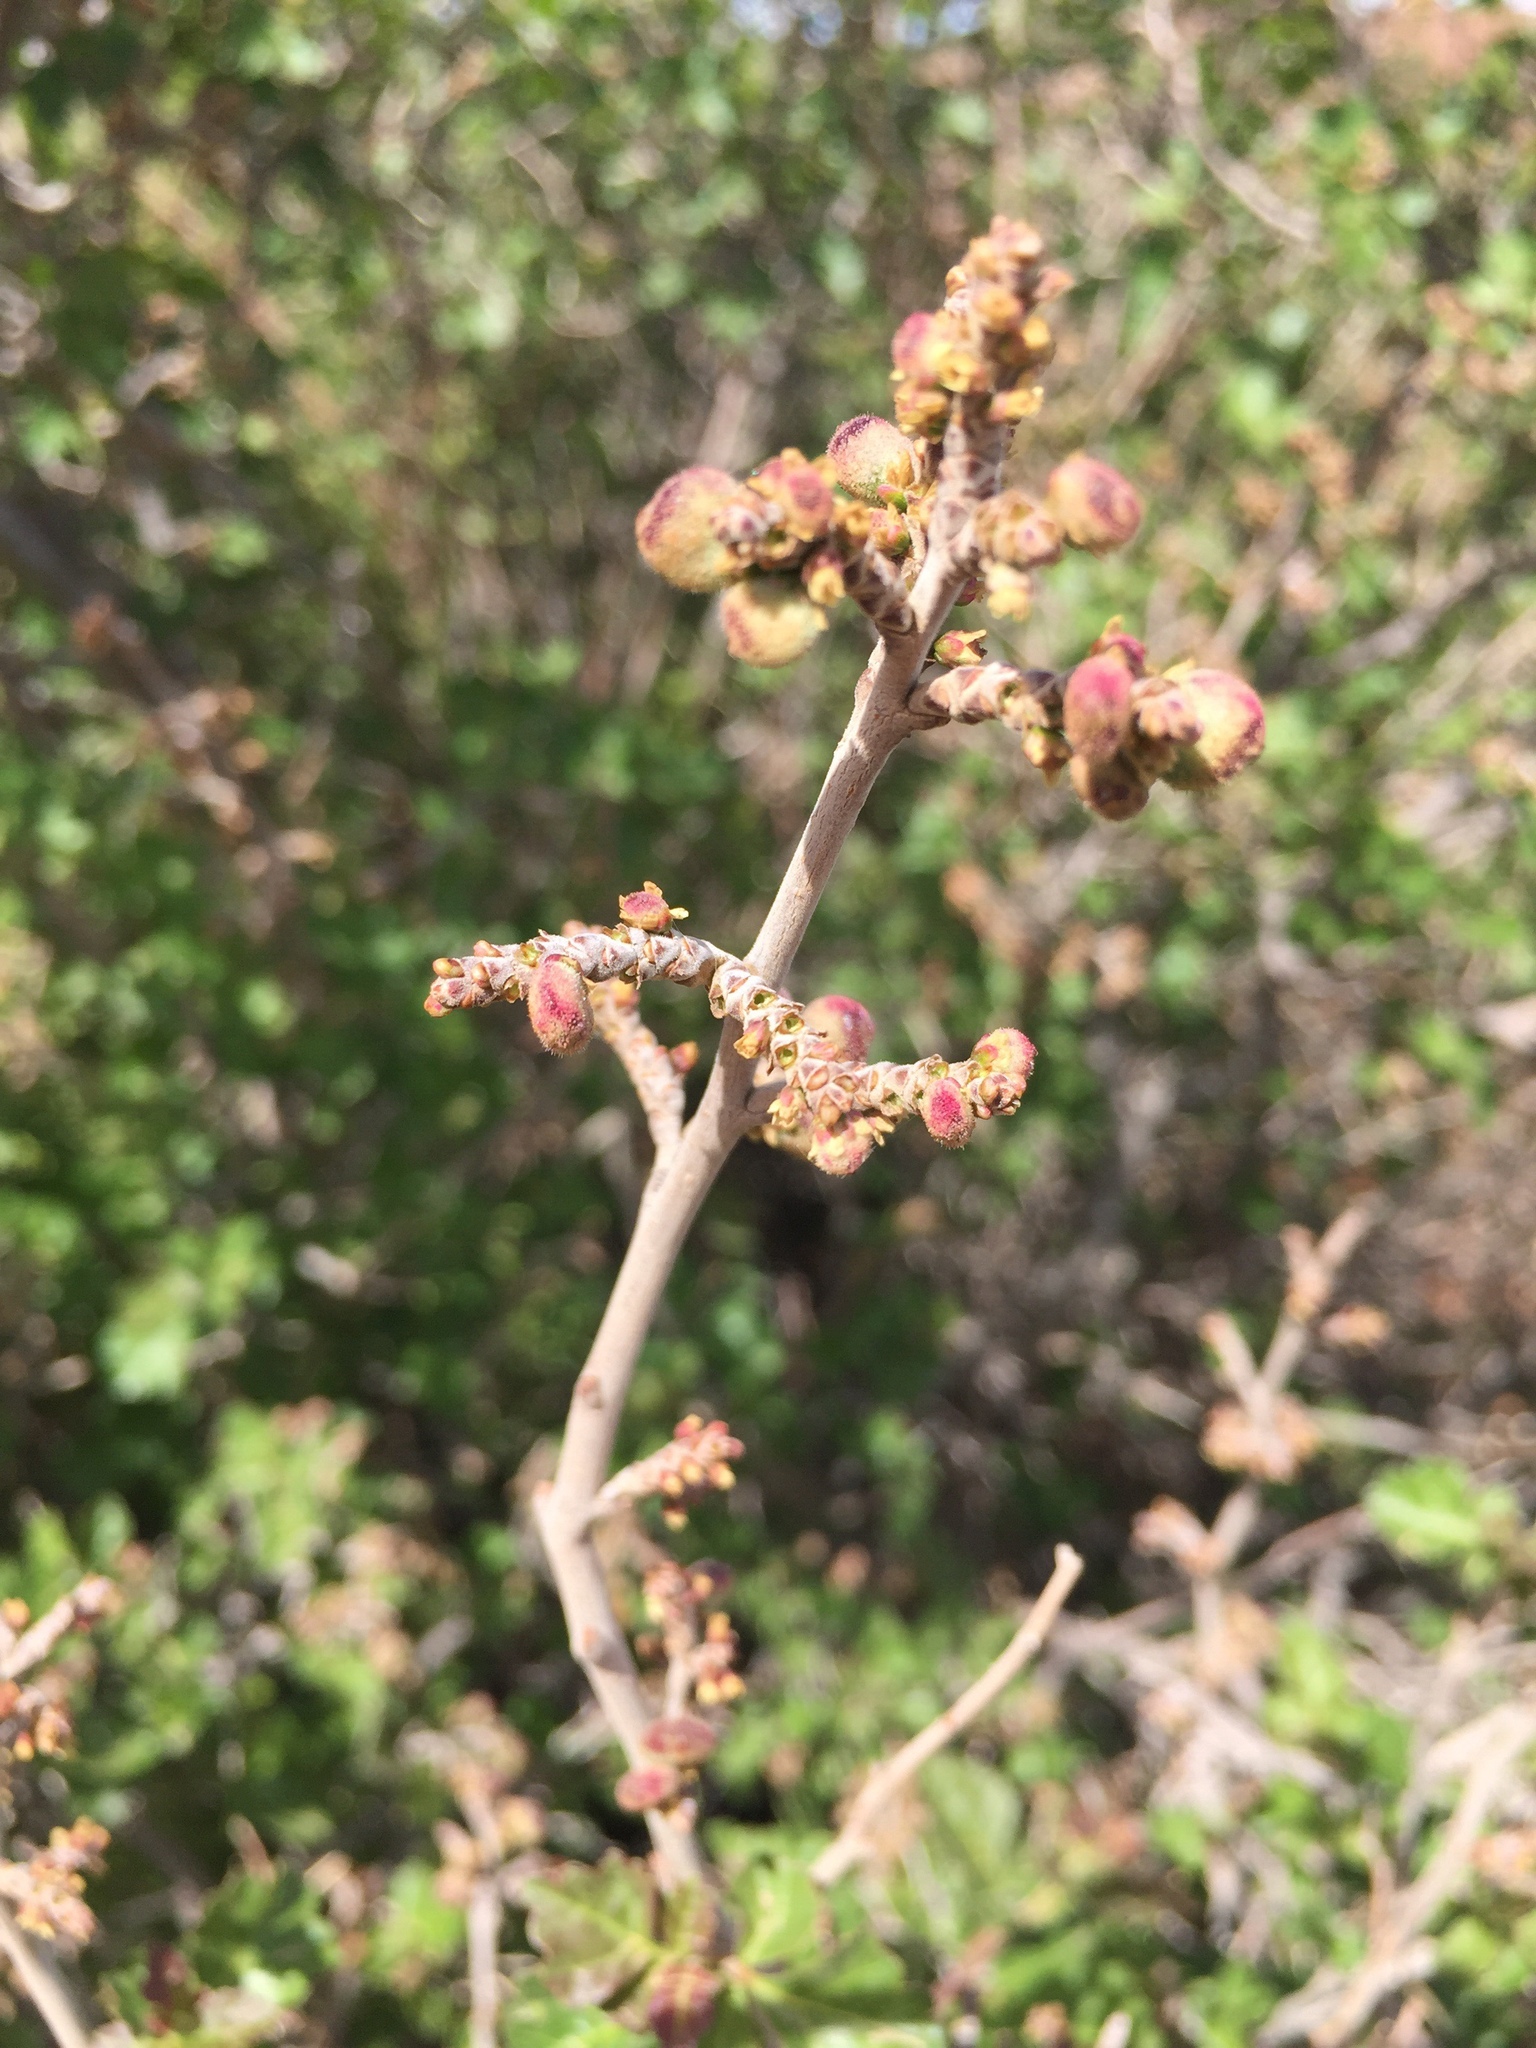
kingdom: Plantae
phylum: Tracheophyta
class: Magnoliopsida
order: Sapindales
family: Anacardiaceae
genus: Rhus
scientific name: Rhus aromatica
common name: Aromatic sumac
